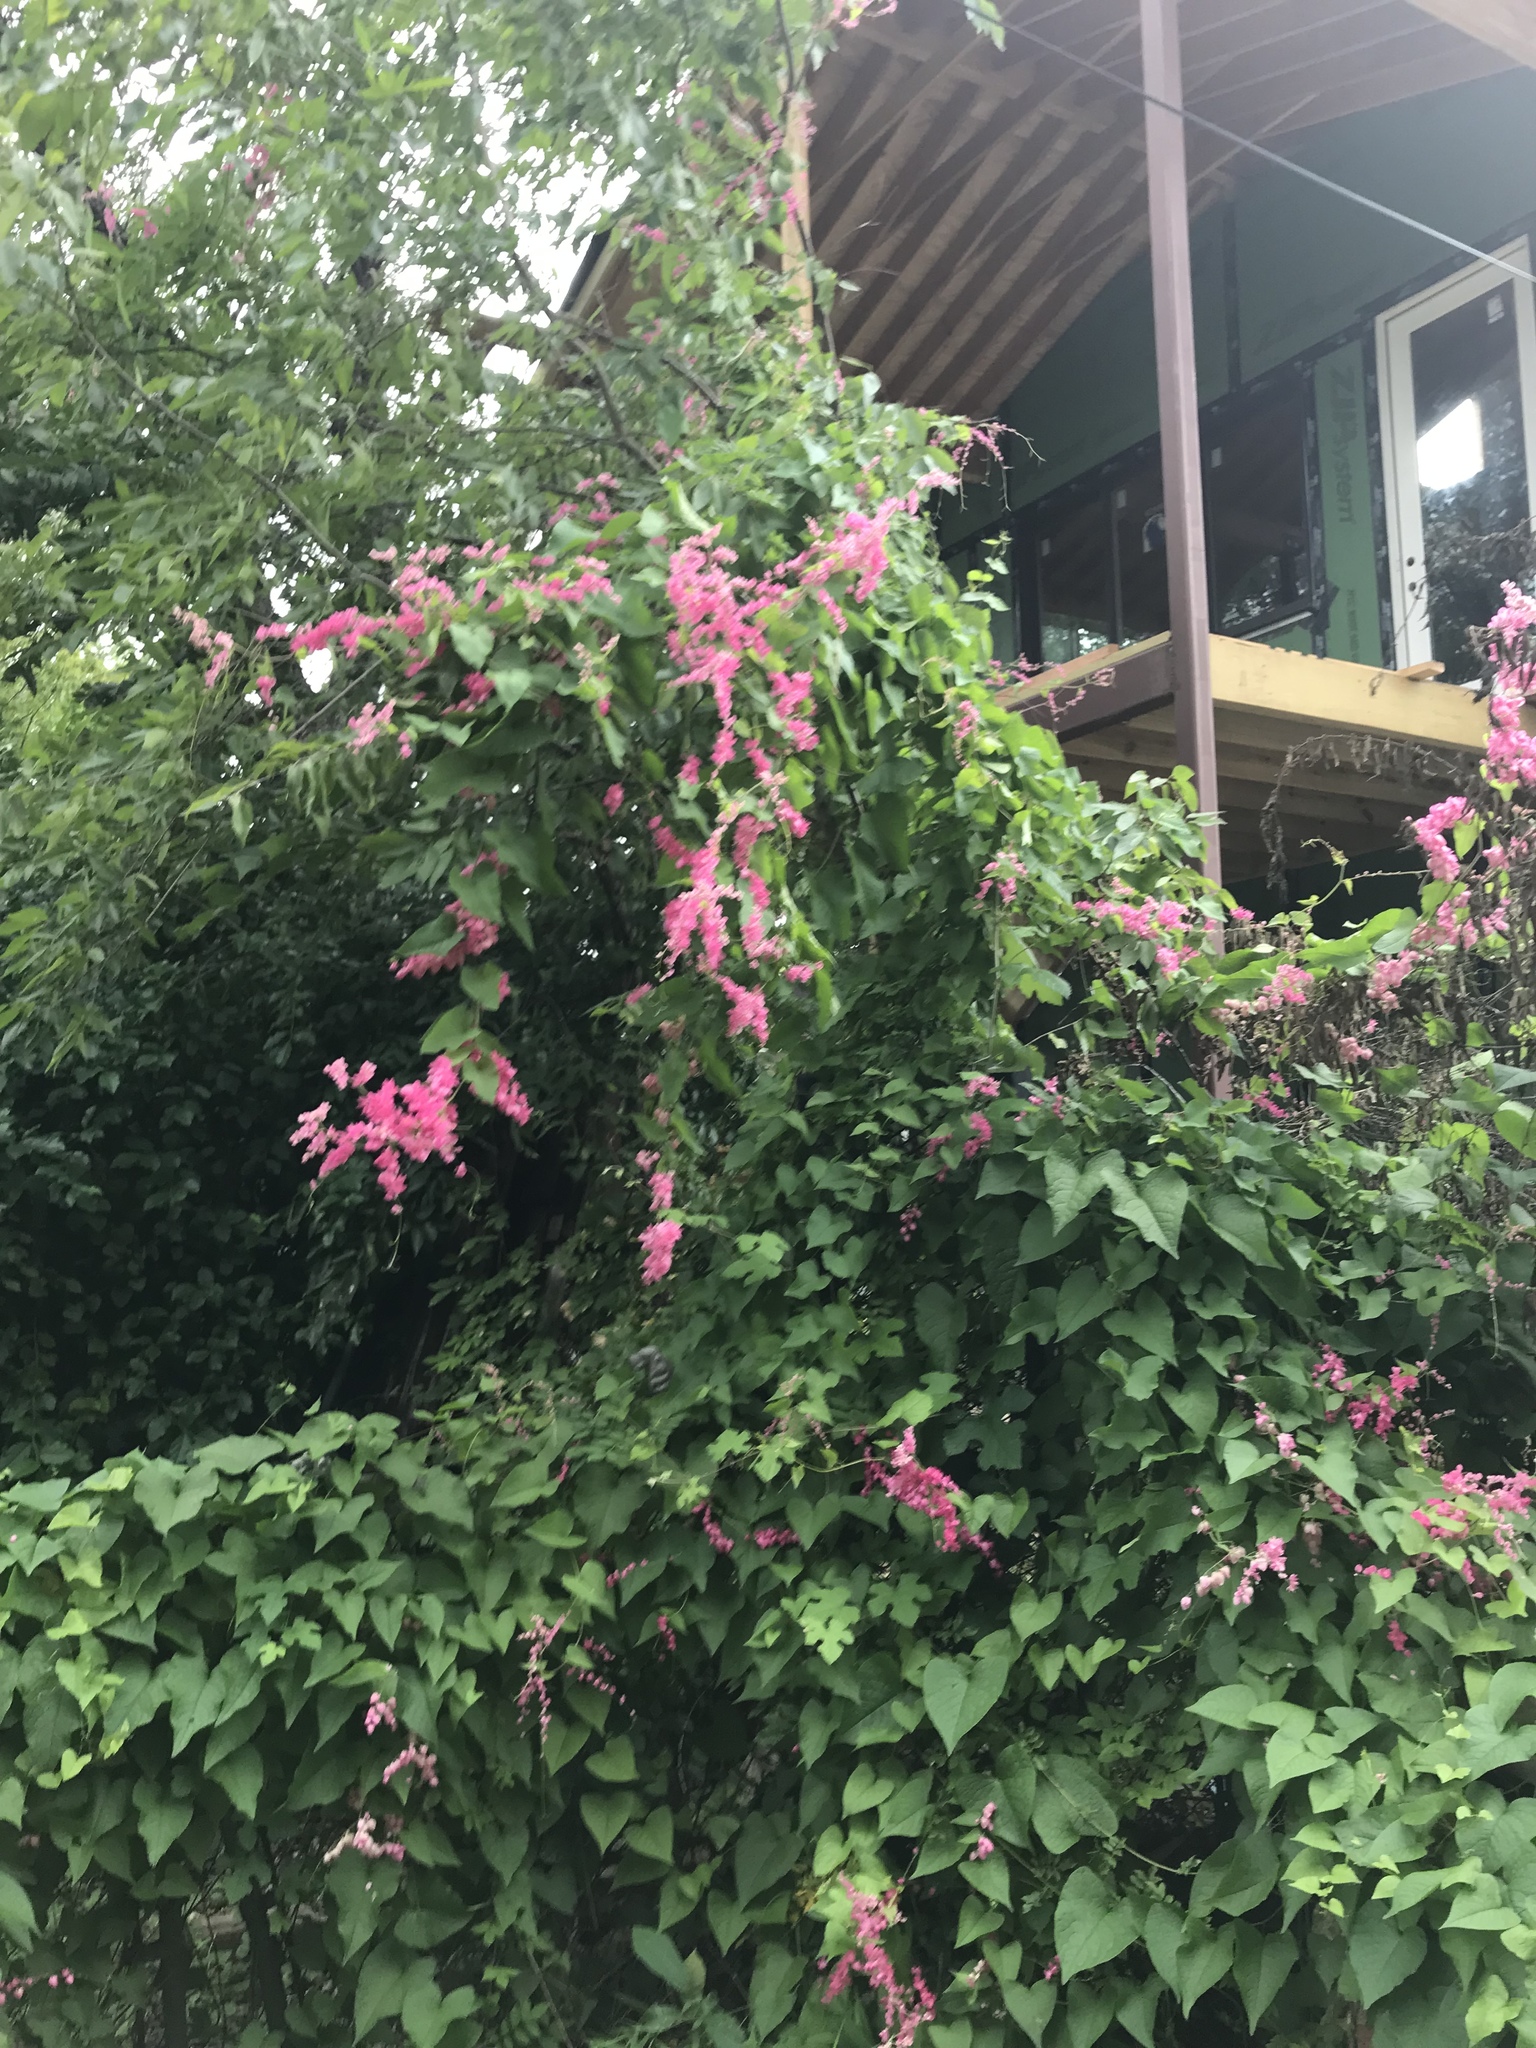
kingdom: Plantae
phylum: Tracheophyta
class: Magnoliopsida
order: Caryophyllales
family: Polygonaceae
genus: Antigonon
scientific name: Antigonon leptopus
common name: Coral vine
